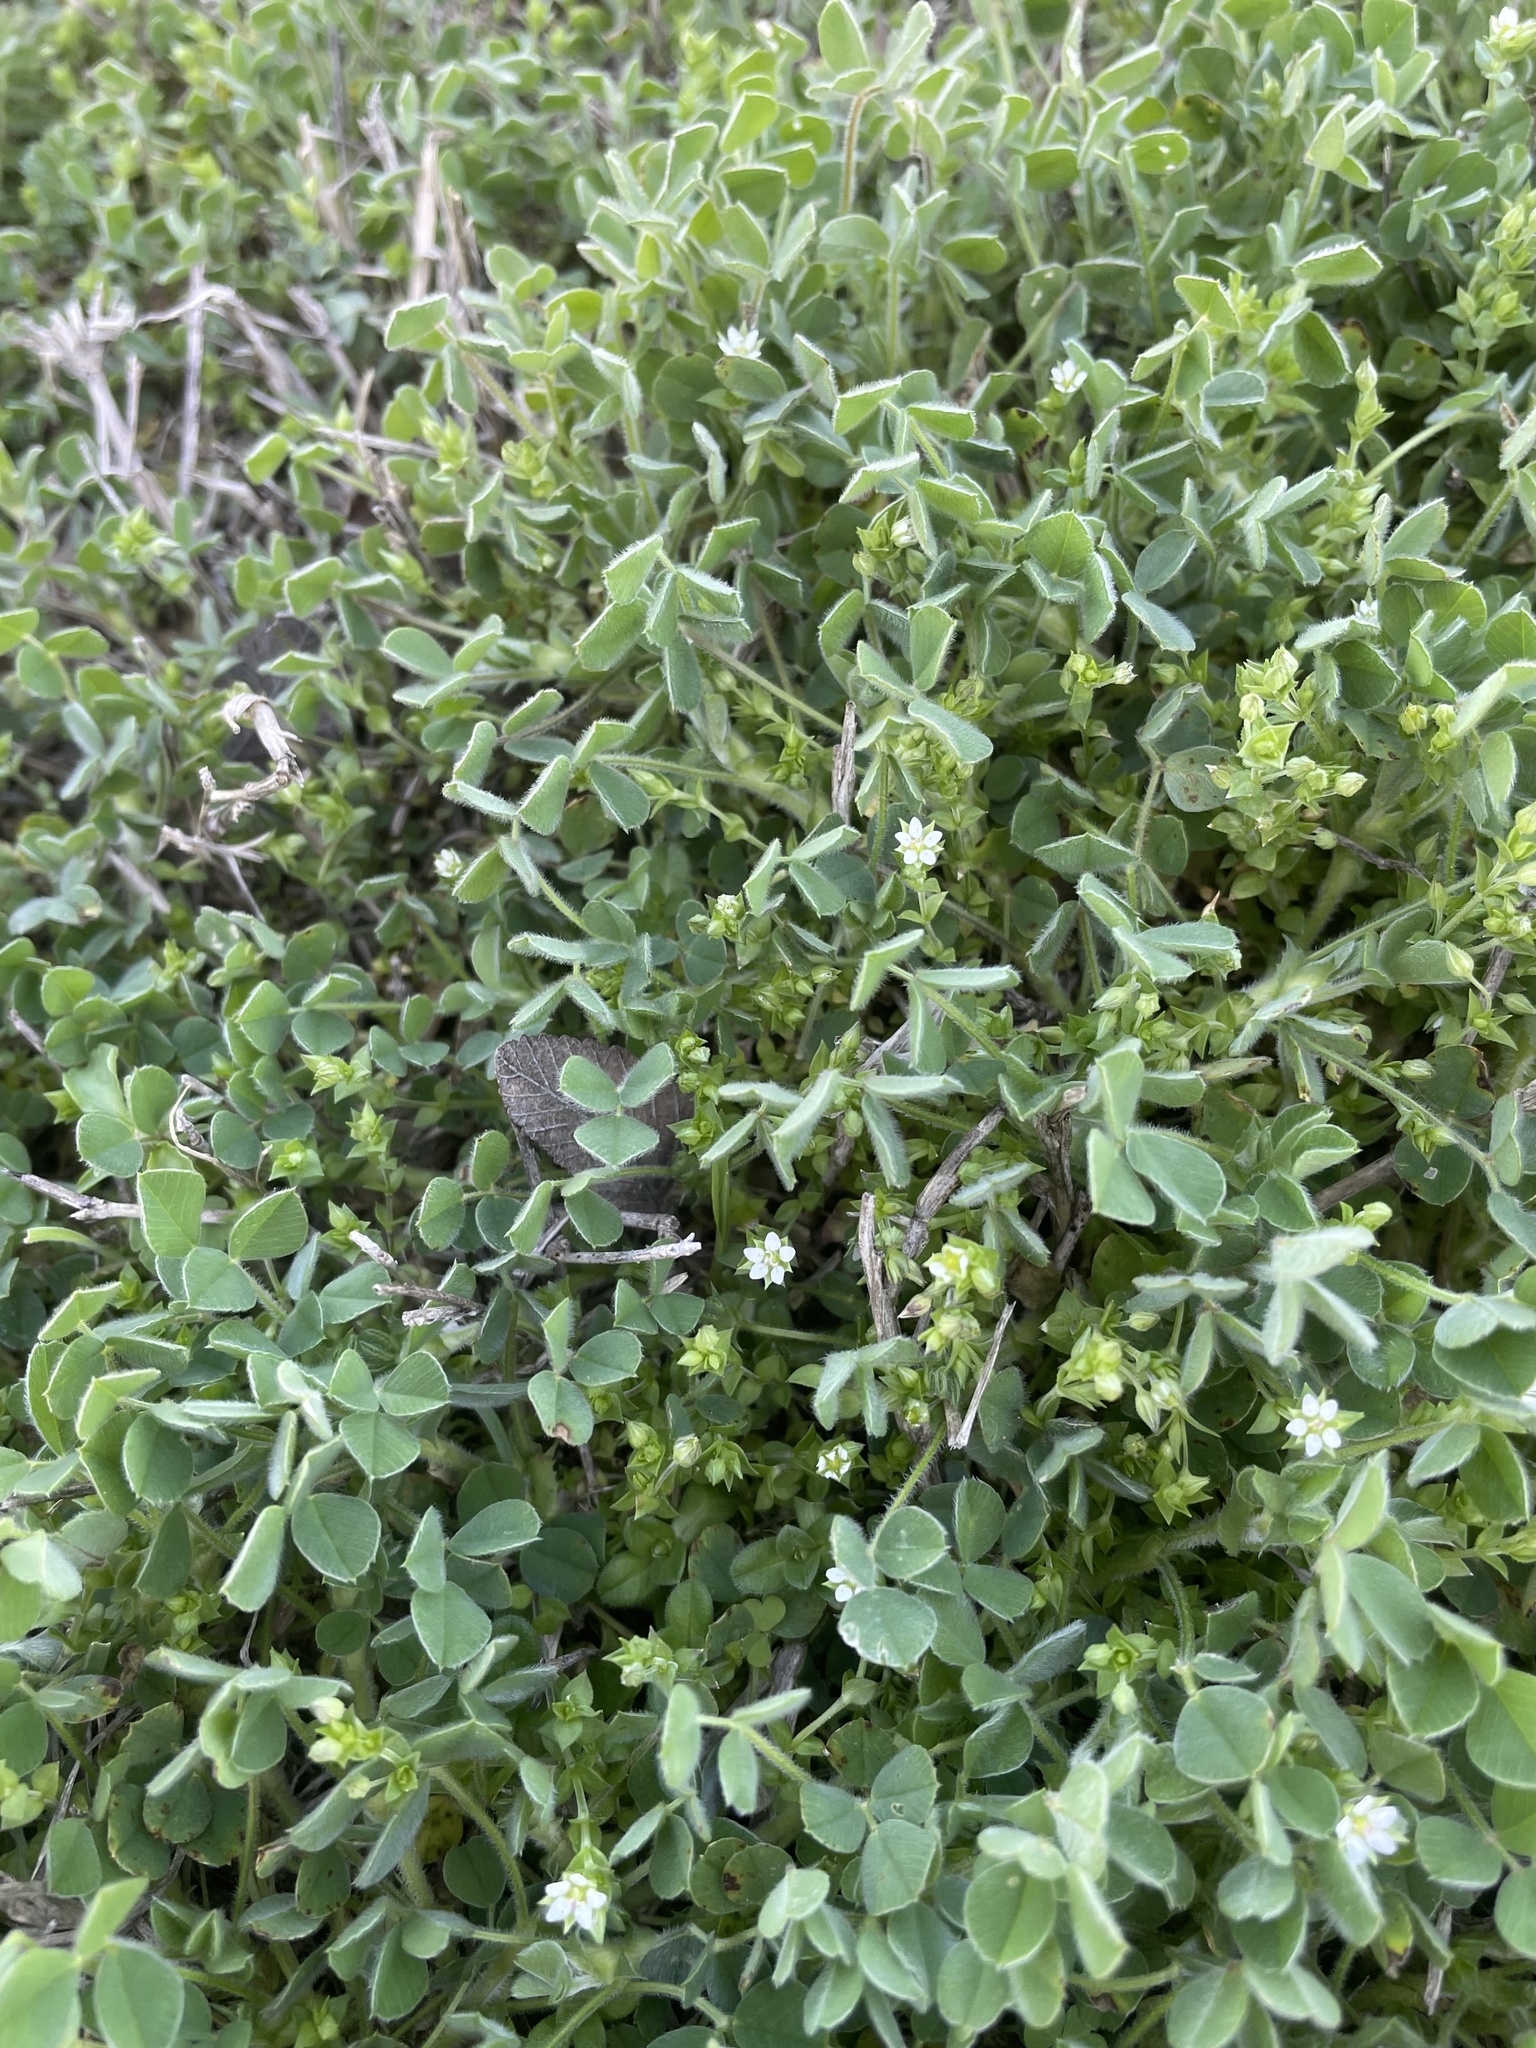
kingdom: Plantae
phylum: Tracheophyta
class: Magnoliopsida
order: Caryophyllales
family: Caryophyllaceae
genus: Arenaria
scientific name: Arenaria serpyllifolia
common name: Thyme-leaved sandwort
